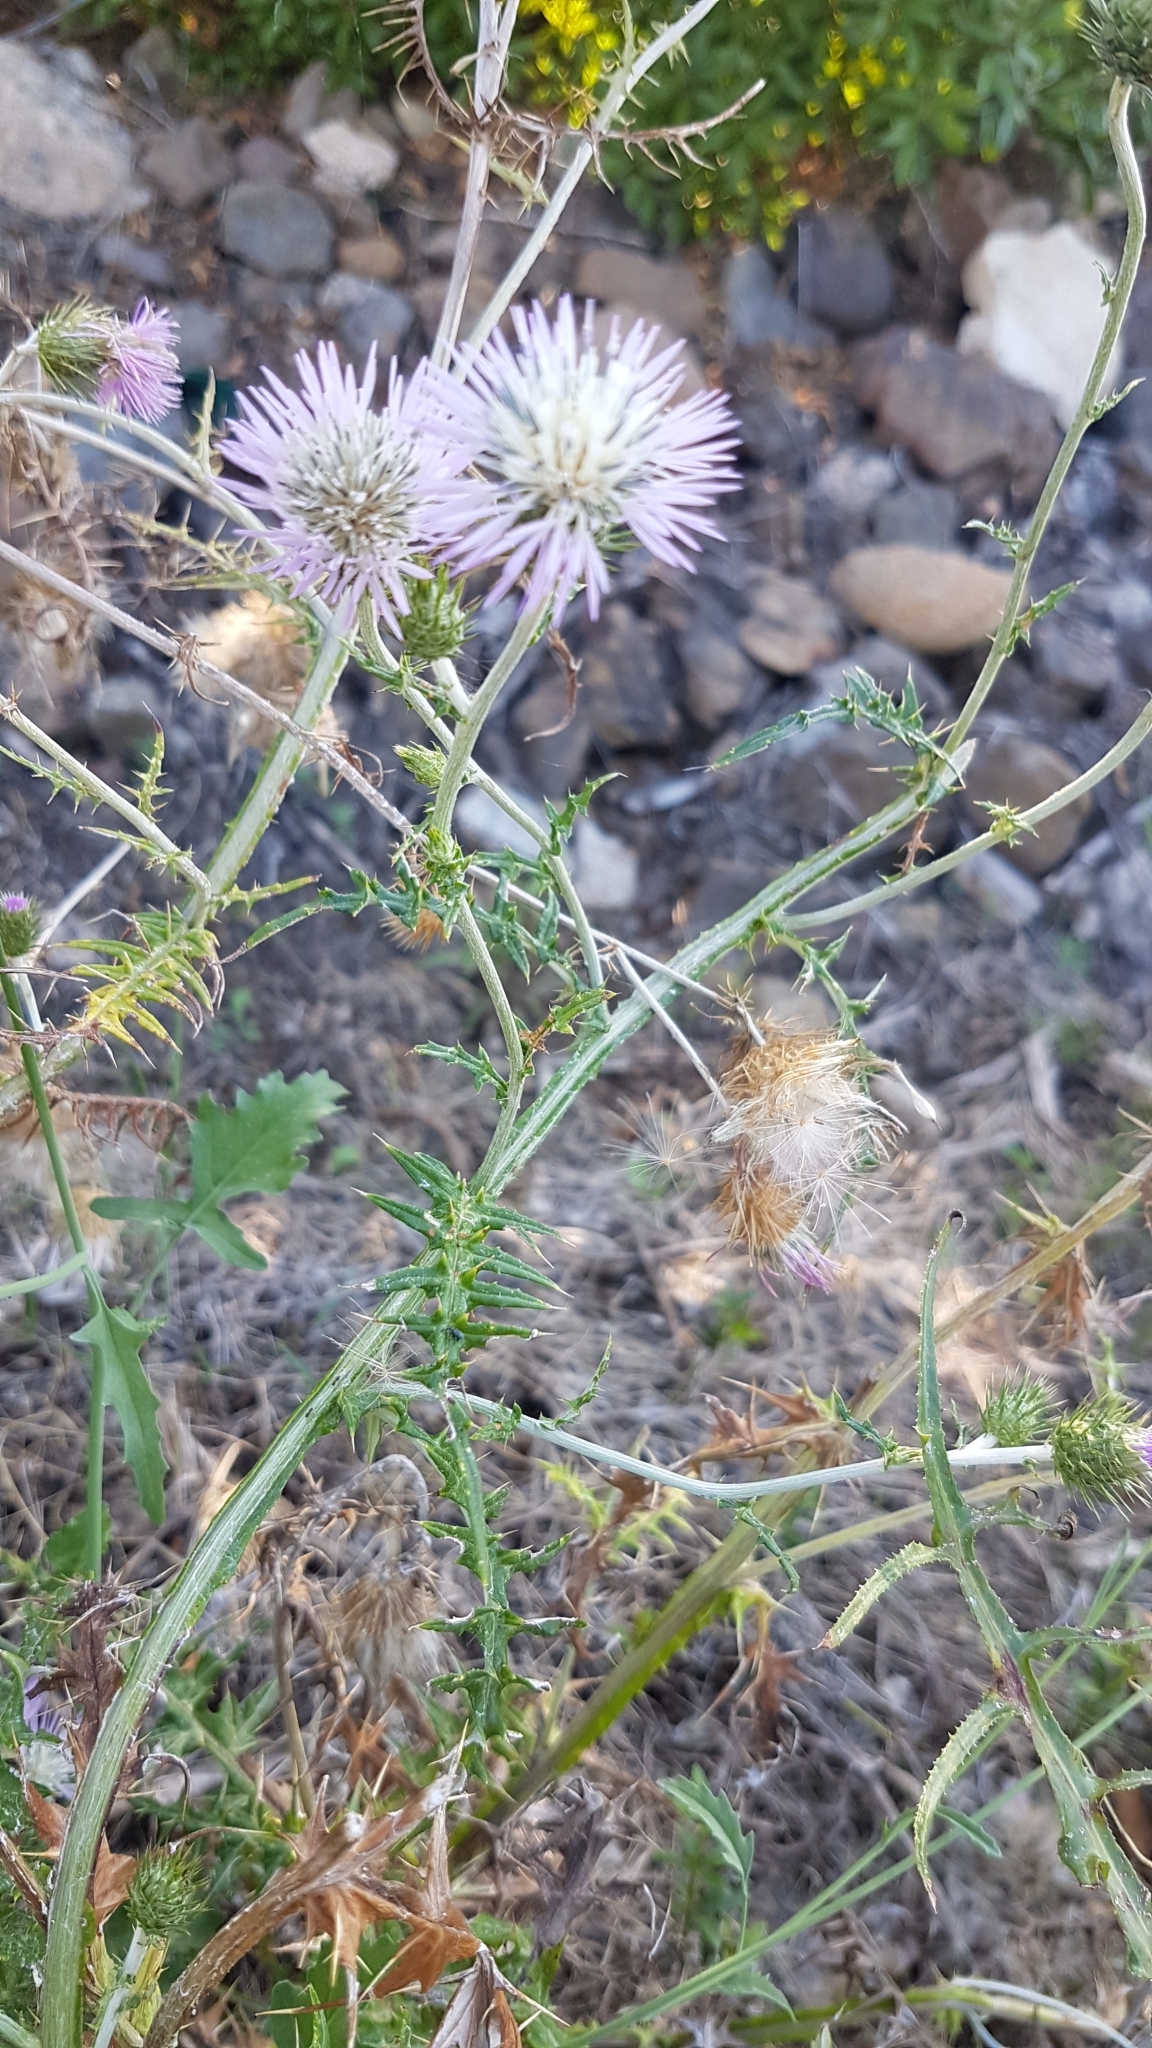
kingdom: Plantae
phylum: Tracheophyta
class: Magnoliopsida
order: Asterales
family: Asteraceae
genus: Galactites
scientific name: Galactites tomentosa
